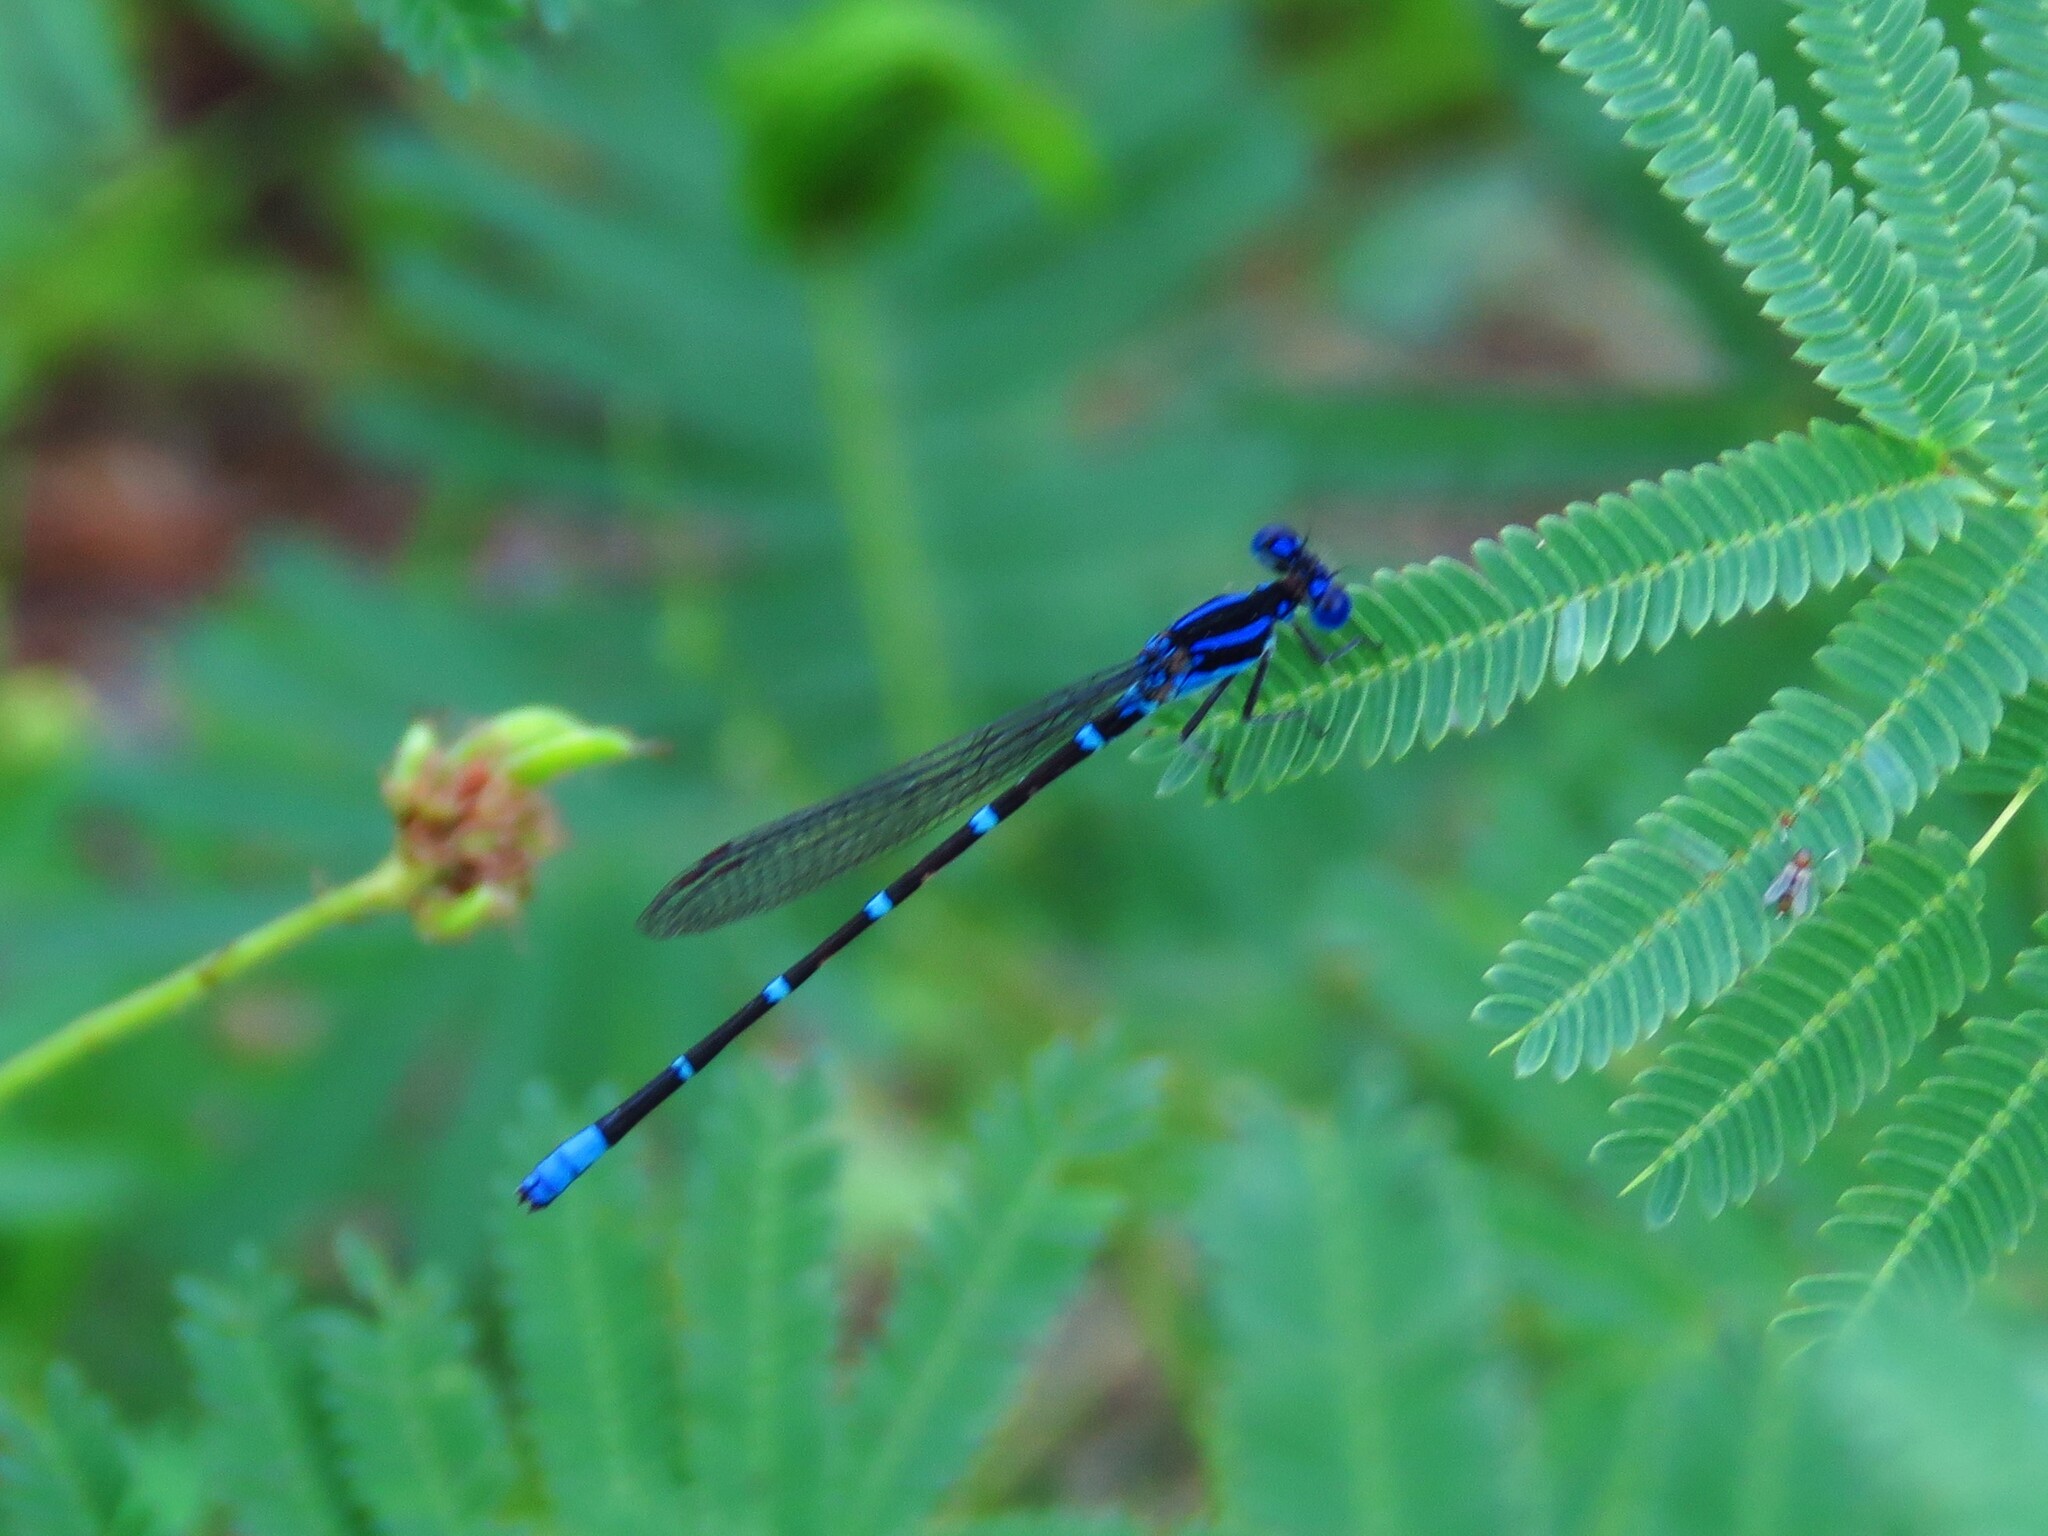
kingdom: Animalia
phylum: Arthropoda
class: Insecta
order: Odonata
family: Coenagrionidae
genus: Argia
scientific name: Argia sedula
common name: Blue-ringed dancer
